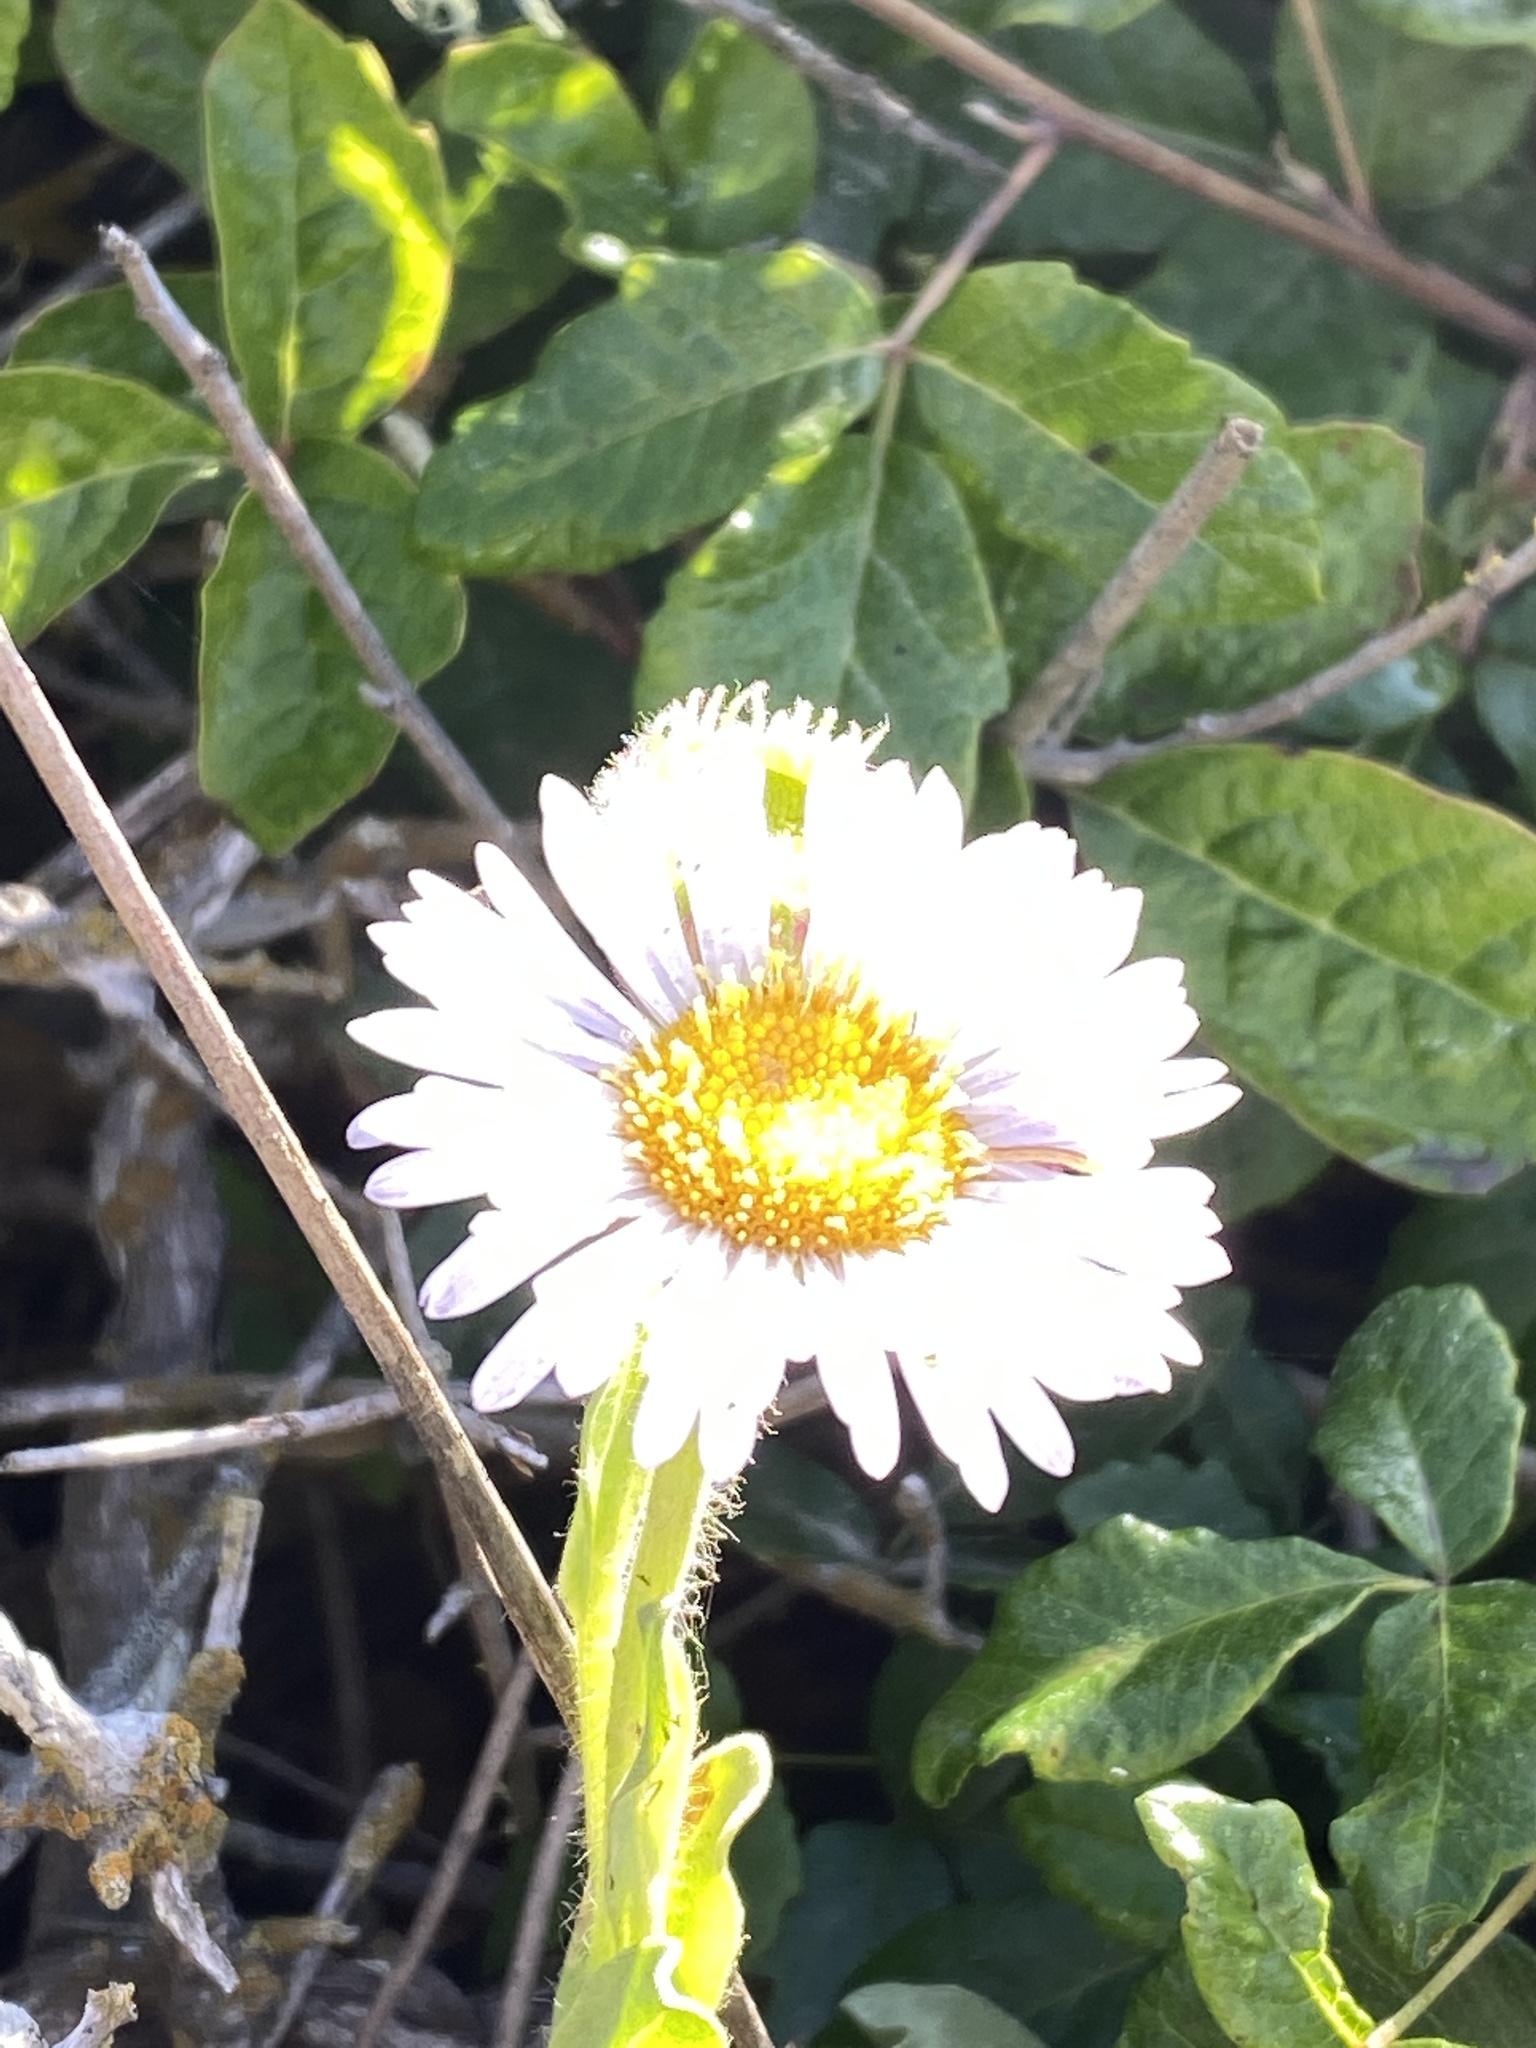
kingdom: Plantae
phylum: Tracheophyta
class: Magnoliopsida
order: Asterales
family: Asteraceae
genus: Erigeron
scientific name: Erigeron glaucus
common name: Seaside daisy
